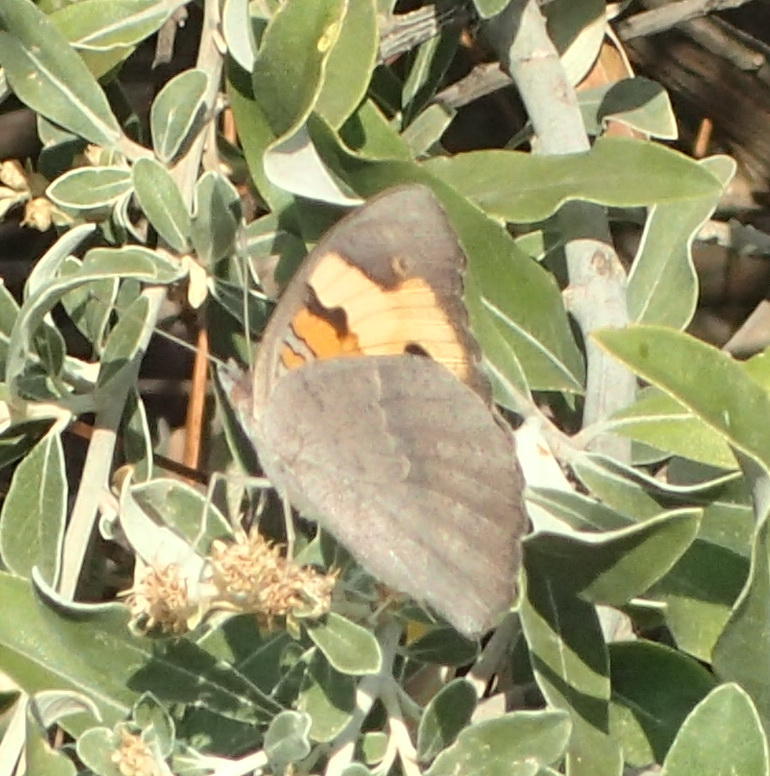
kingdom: Animalia
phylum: Arthropoda
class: Insecta
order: Lepidoptera
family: Nymphalidae
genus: Junonia
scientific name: Junonia hierta
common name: Yellow pansy
